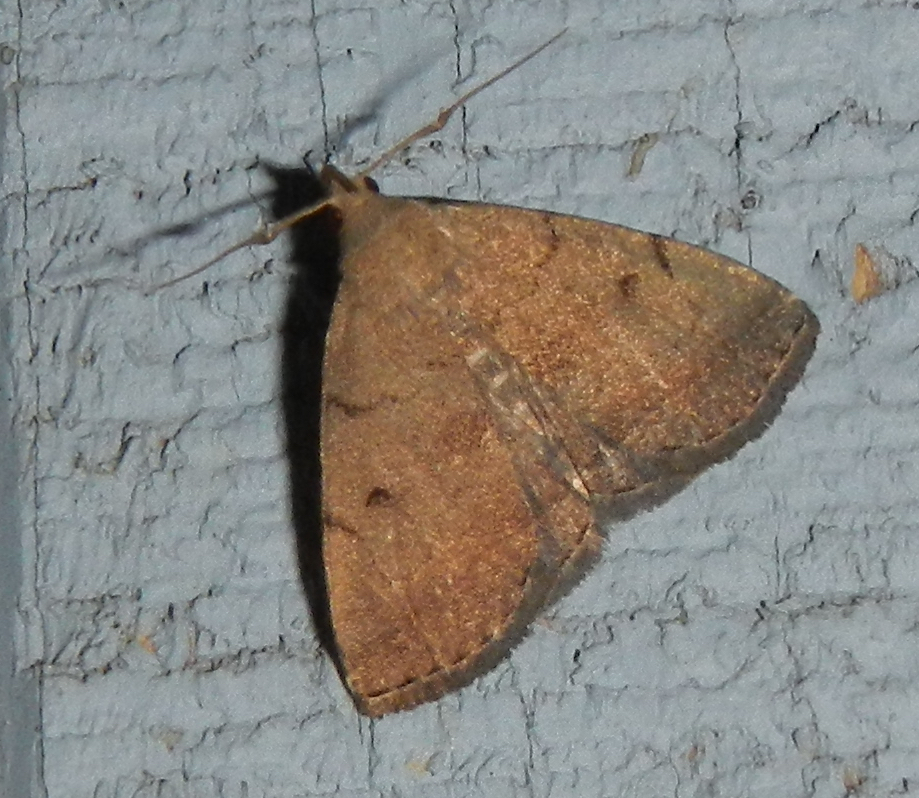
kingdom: Animalia
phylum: Arthropoda
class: Insecta
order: Lepidoptera
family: Erebidae
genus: Zanclognatha
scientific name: Zanclognatha protumnusalis
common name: Complex fan-foot
